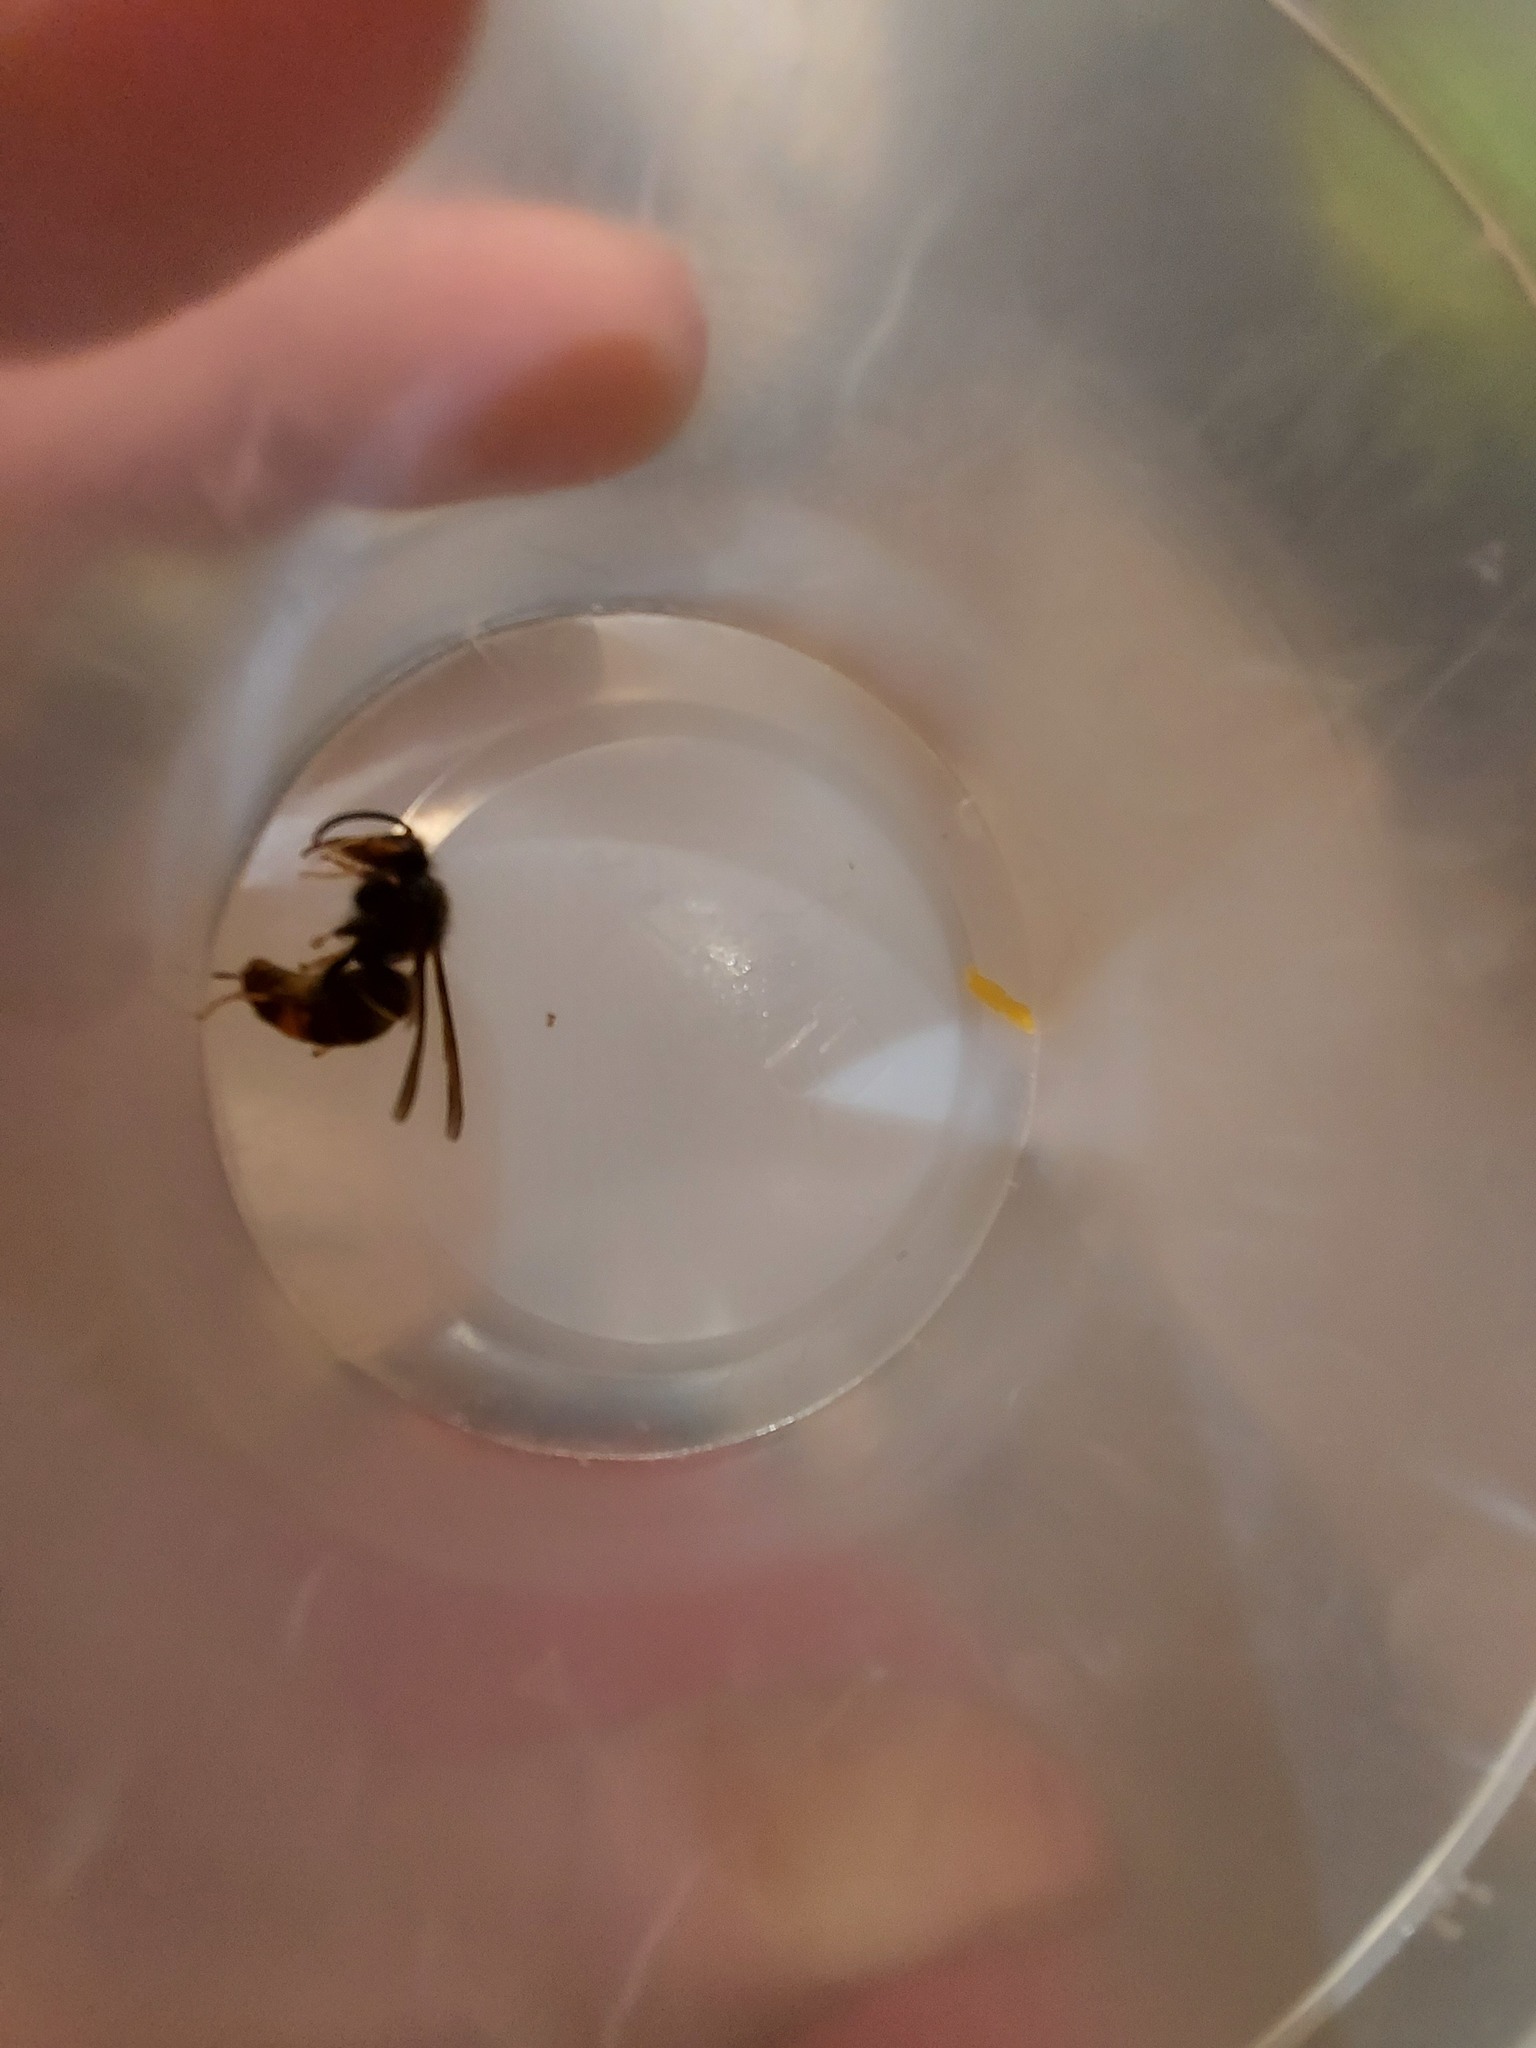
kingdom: Animalia
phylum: Arthropoda
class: Insecta
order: Hymenoptera
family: Vespidae
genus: Vespa
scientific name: Vespa velutina
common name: Asian hornet
